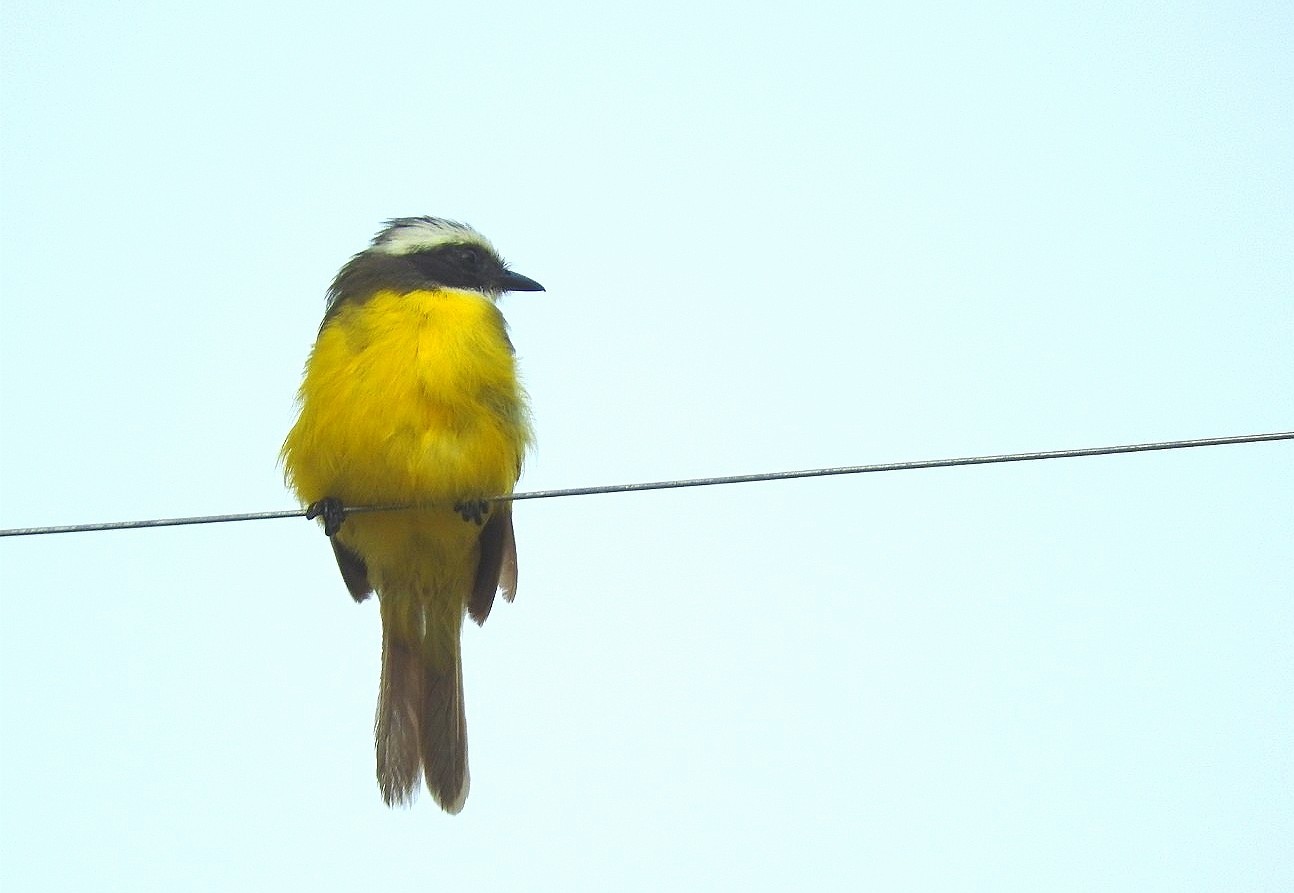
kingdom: Animalia
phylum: Chordata
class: Aves
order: Passeriformes
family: Tyrannidae
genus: Myiozetetes
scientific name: Myiozetetes similis
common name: Social flycatcher
